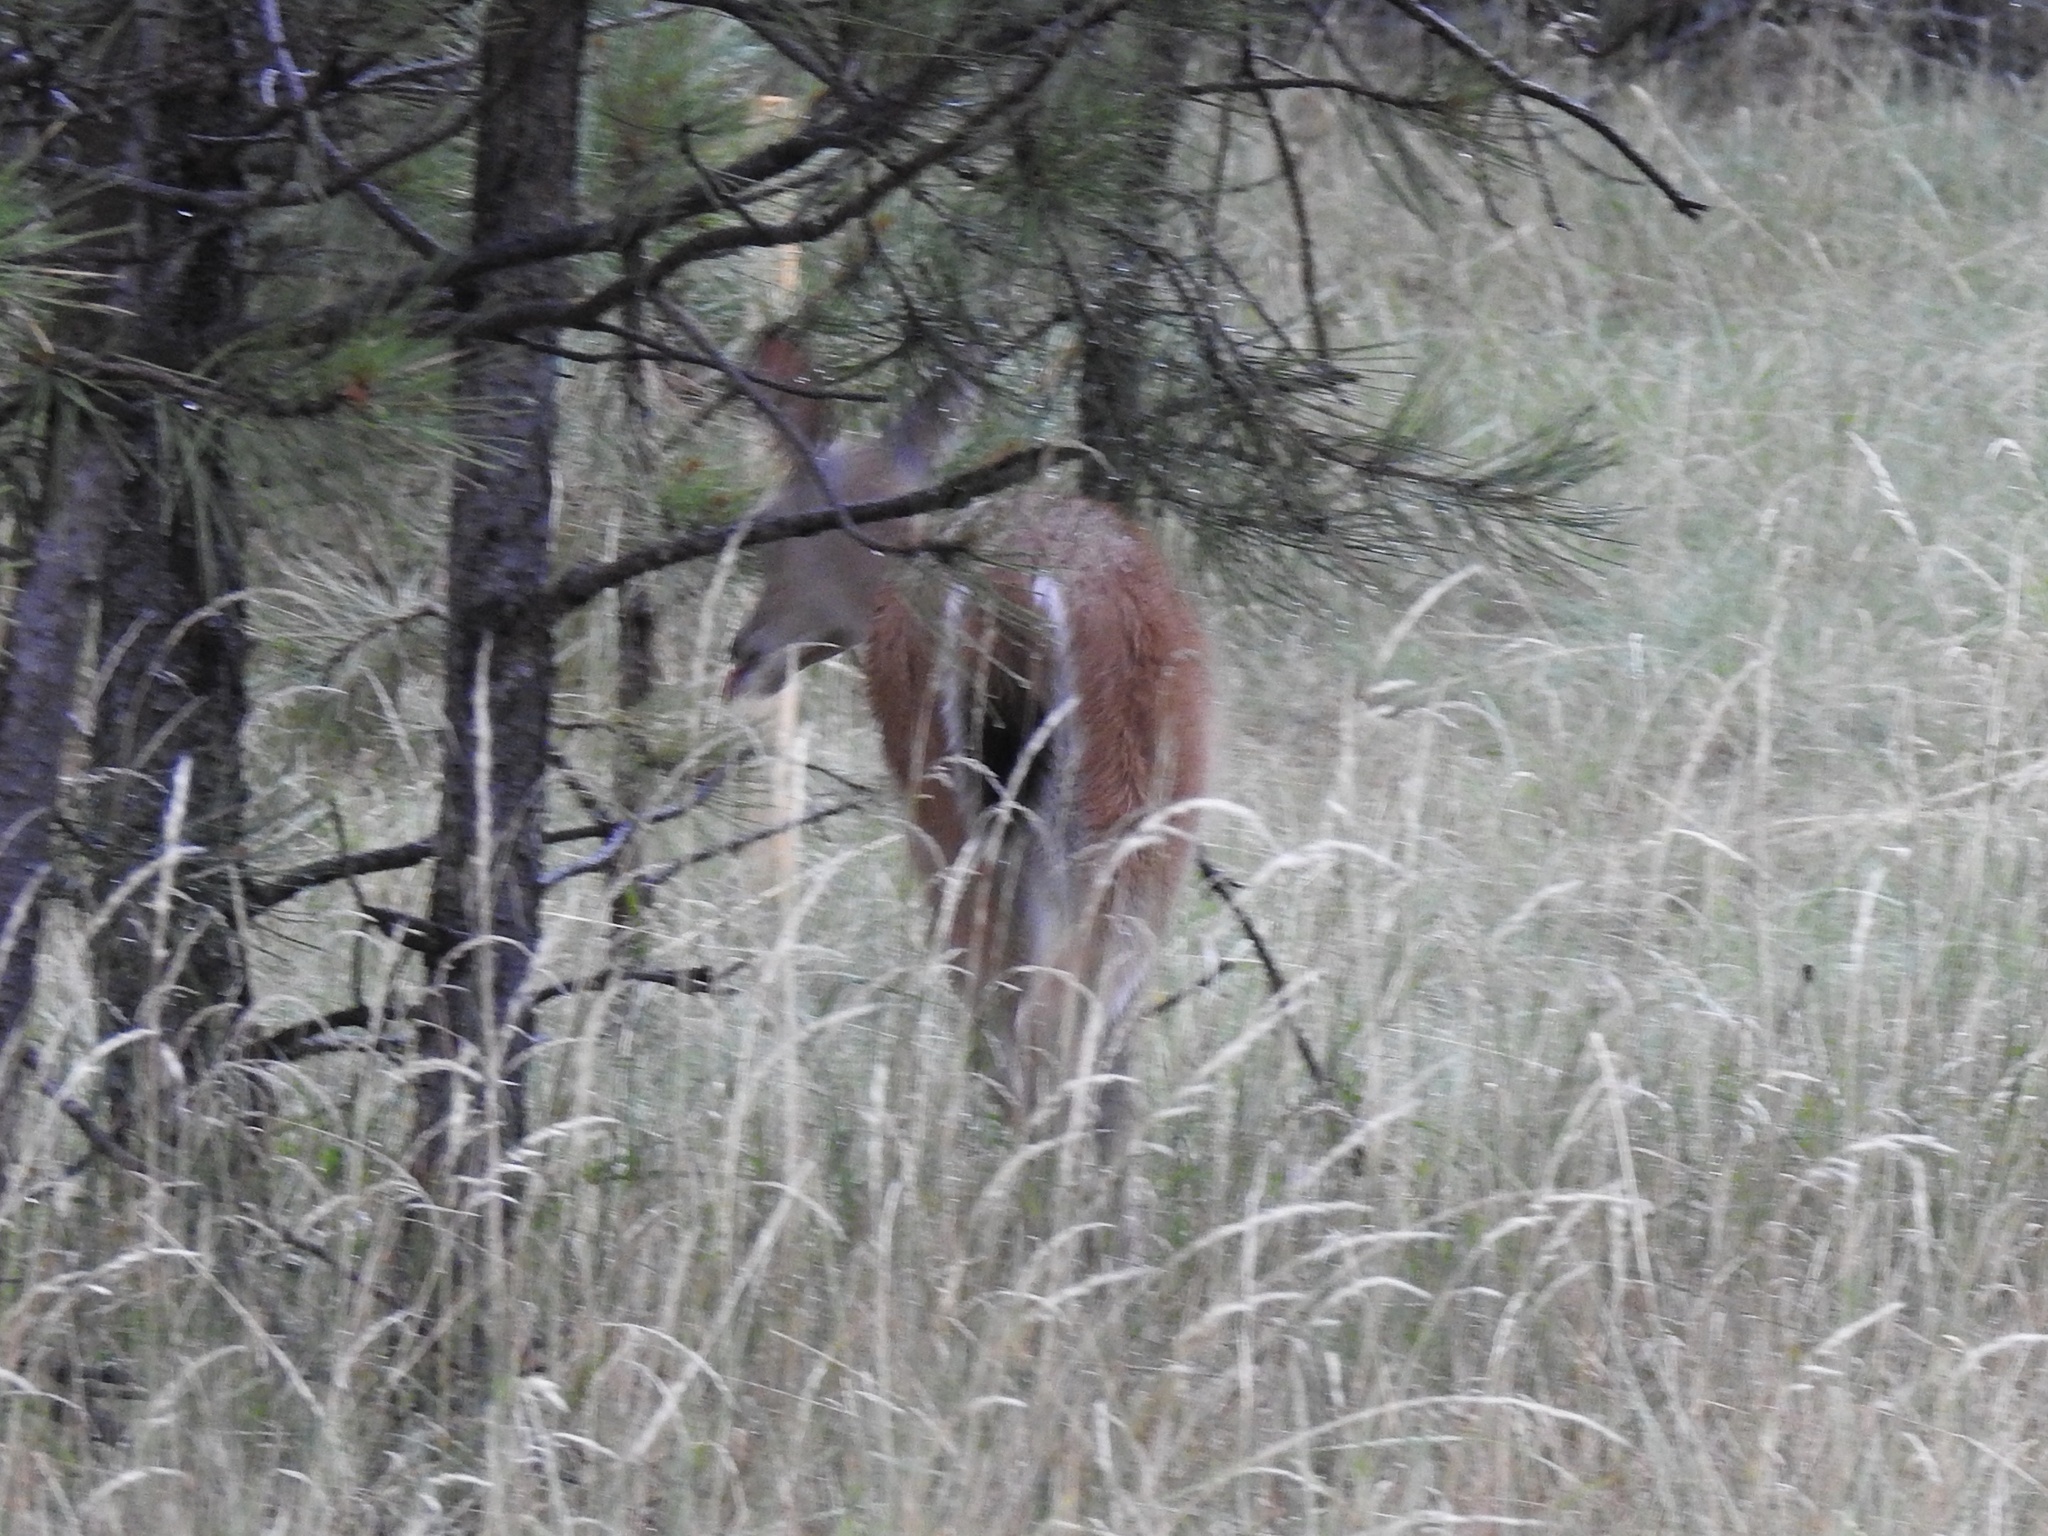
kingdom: Animalia
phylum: Chordata
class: Mammalia
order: Artiodactyla
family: Cervidae
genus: Odocoileus
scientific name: Odocoileus virginianus
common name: White-tailed deer
